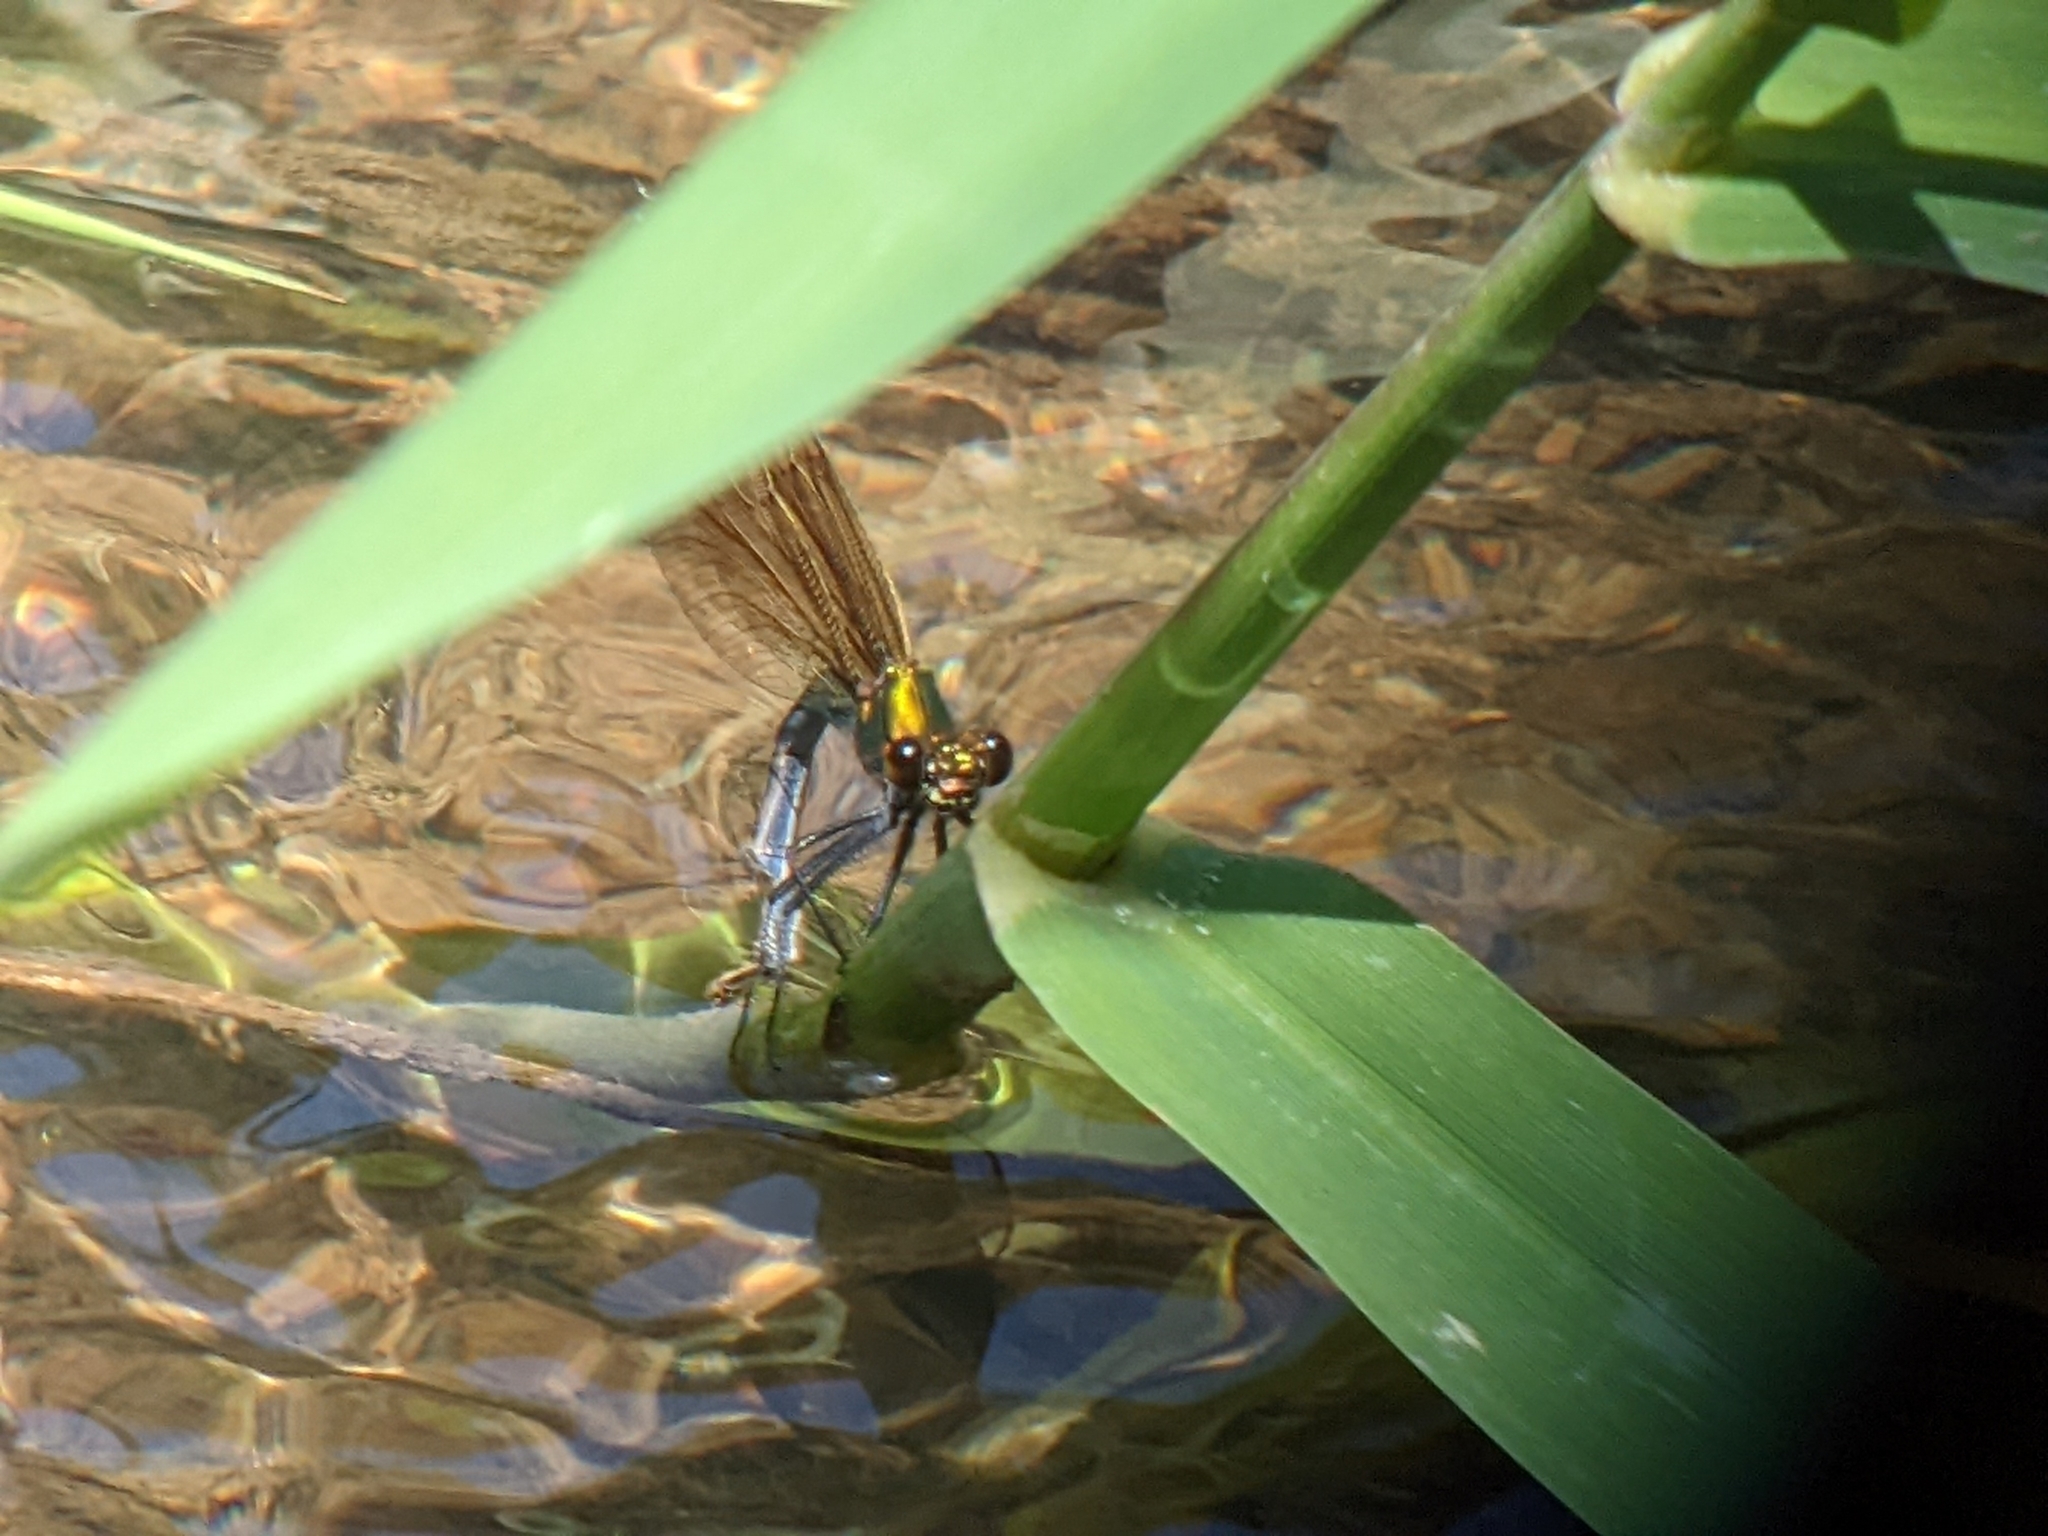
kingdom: Animalia
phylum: Arthropoda
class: Insecta
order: Odonata
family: Calopterygidae
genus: Calopteryx
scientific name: Calopteryx splendens
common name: Banded demoiselle
